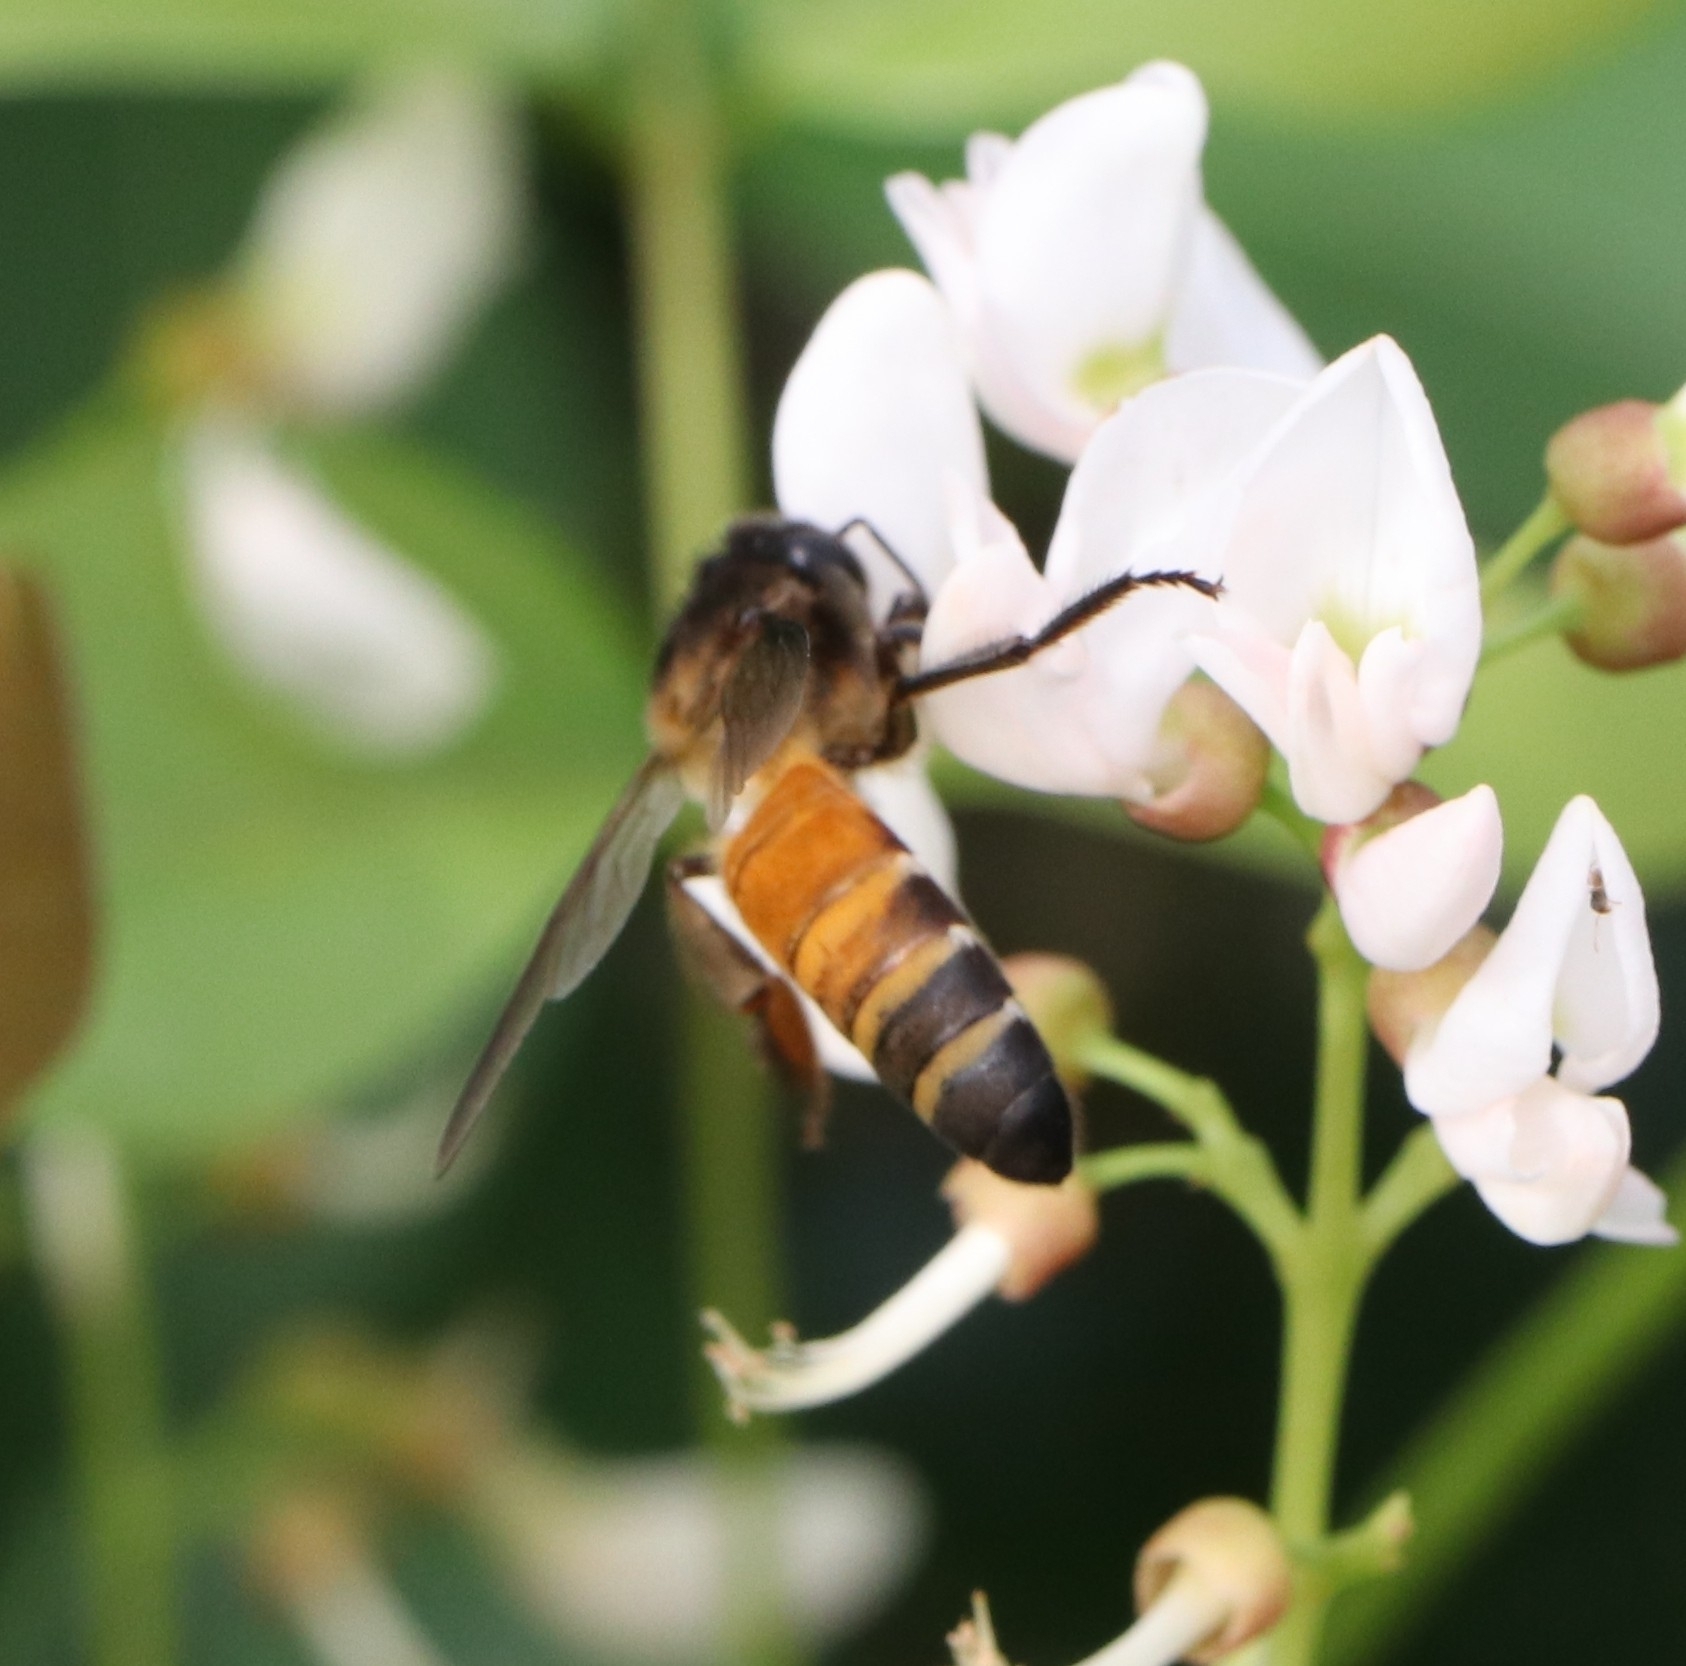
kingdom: Animalia
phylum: Arthropoda
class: Insecta
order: Hymenoptera
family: Apidae
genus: Apis
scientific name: Apis dorsata
